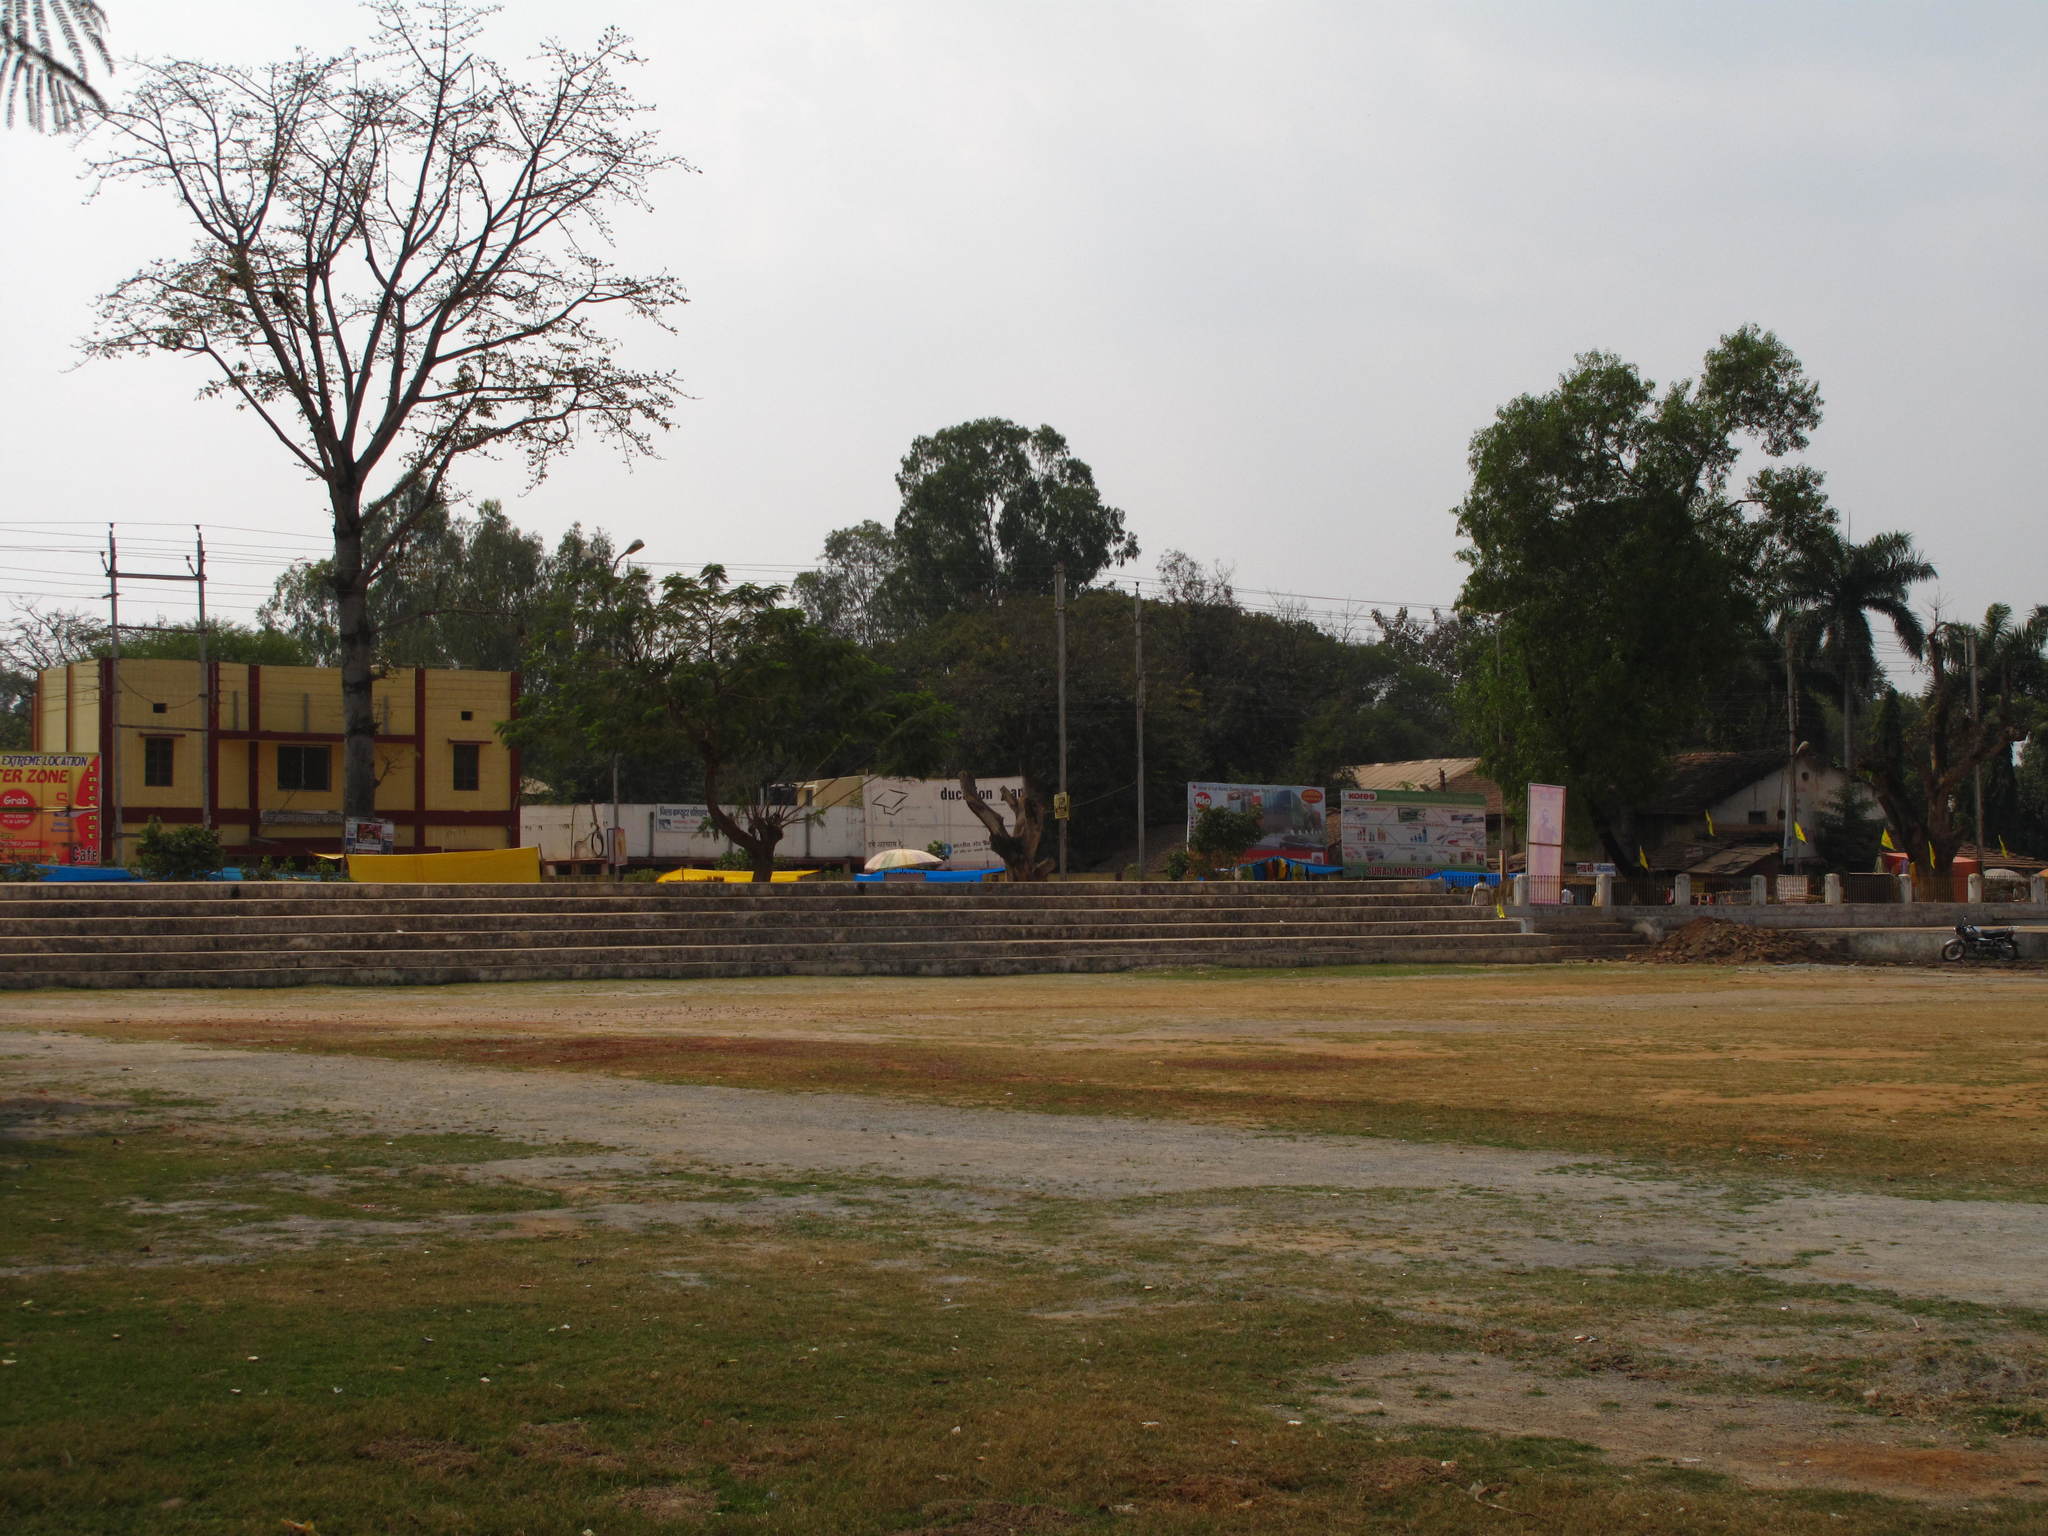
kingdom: Plantae
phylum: Tracheophyta
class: Magnoliopsida
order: Malvales
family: Malvaceae
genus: Bombax
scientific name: Bombax ceiba
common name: Northern-cottonwood
